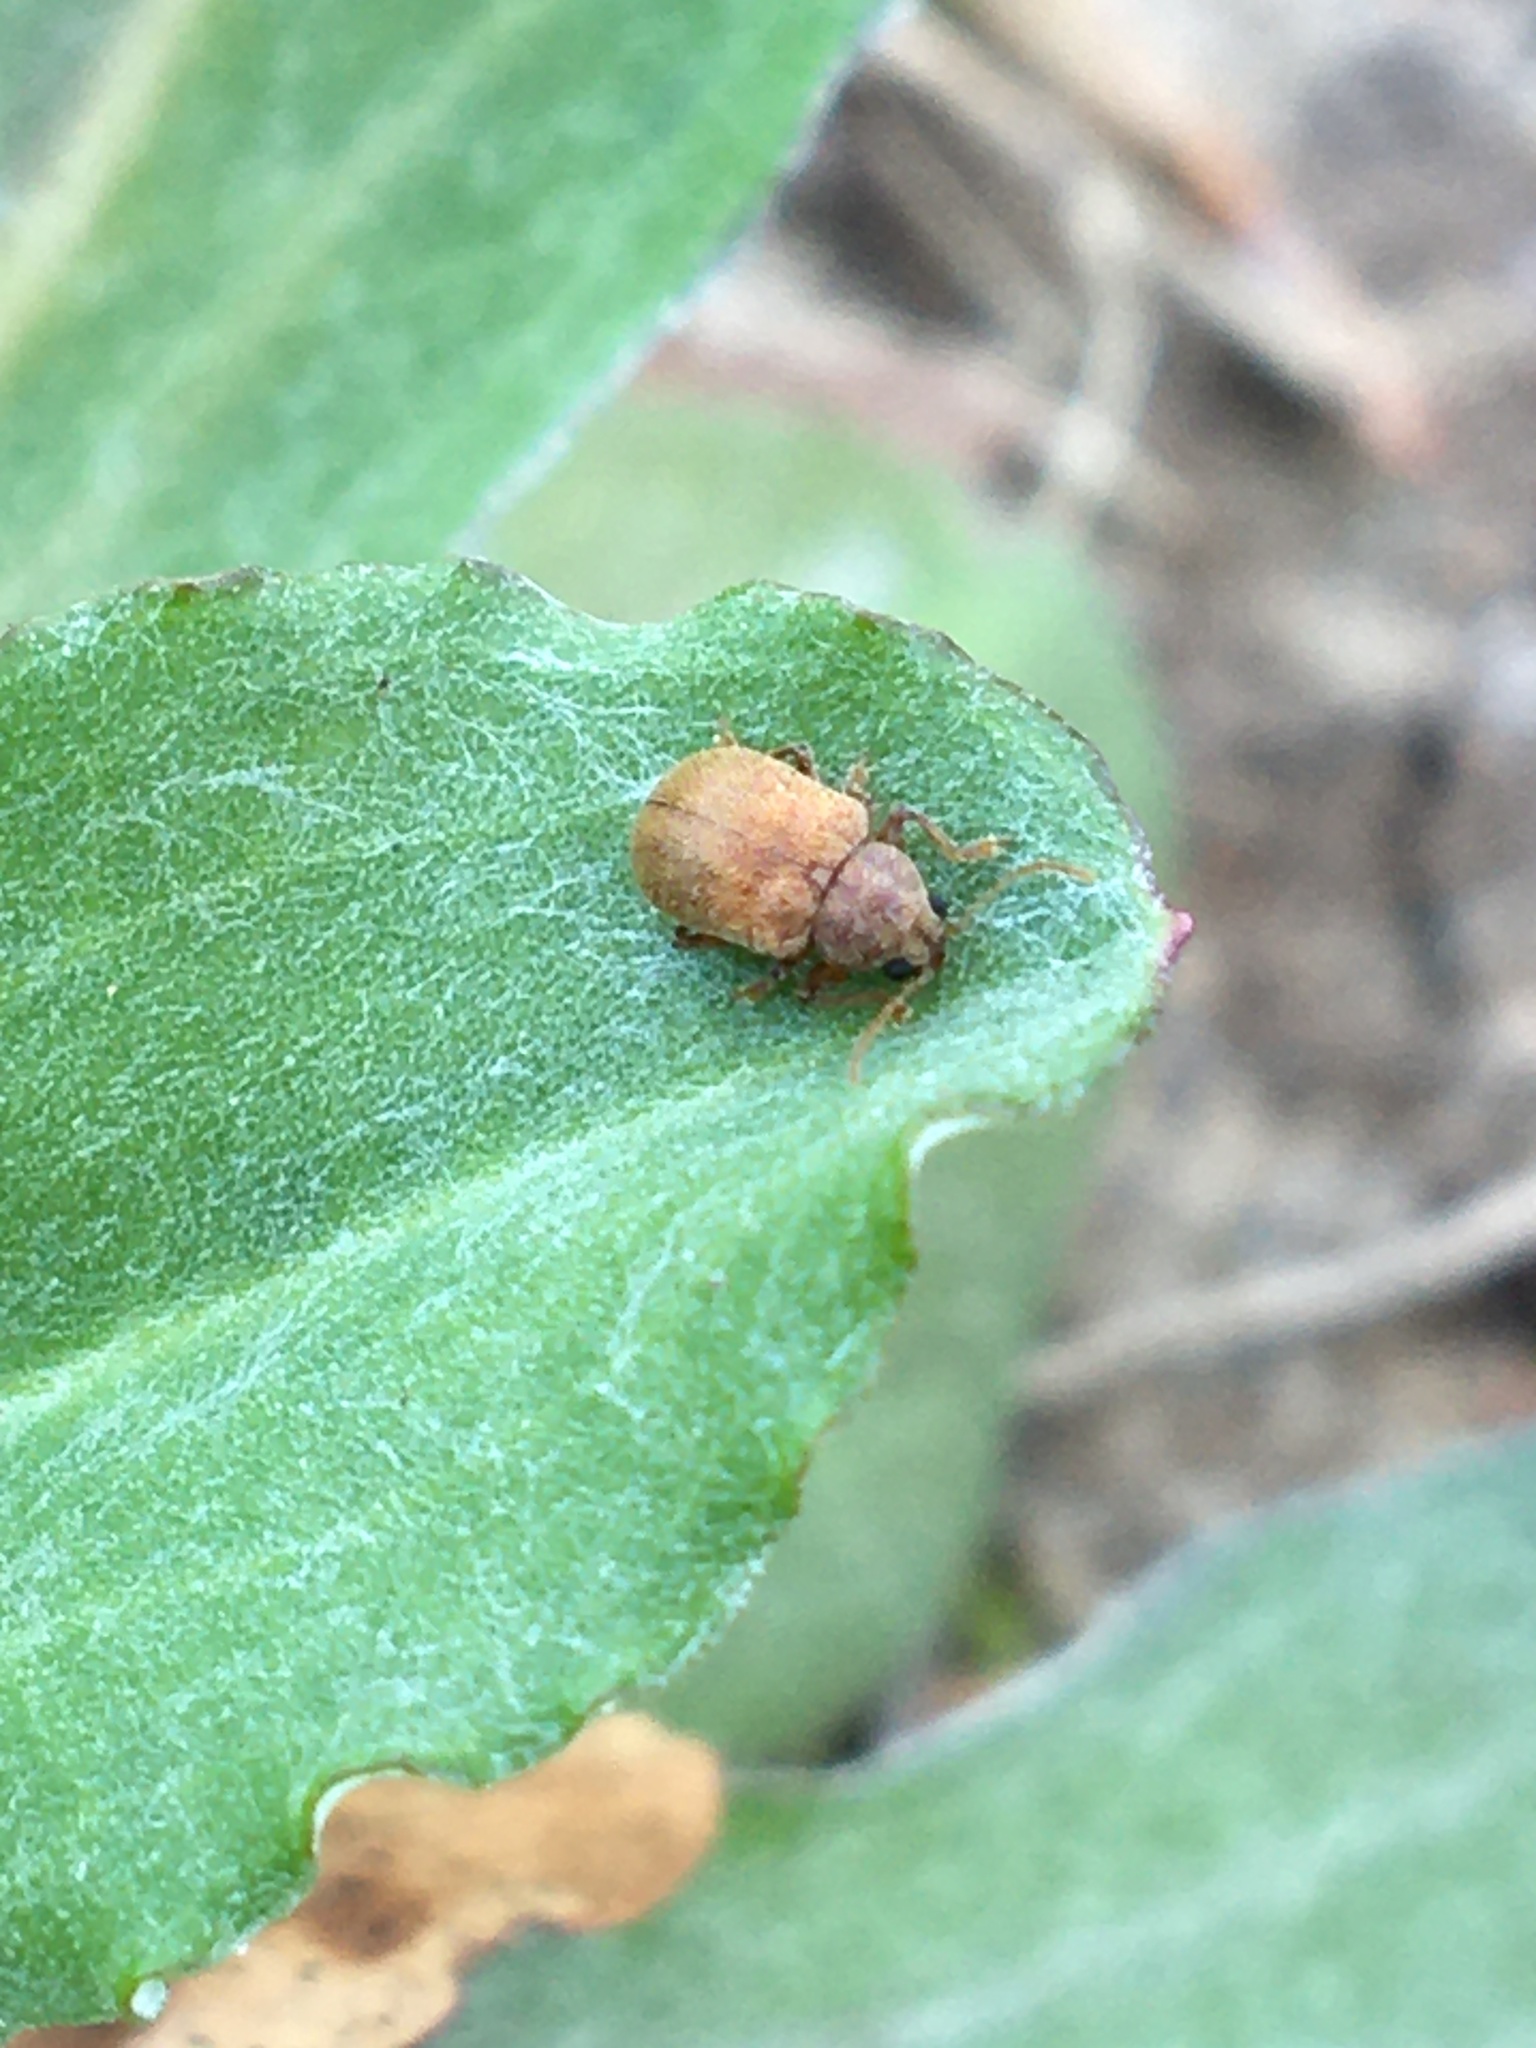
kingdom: Animalia
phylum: Arthropoda
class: Insecta
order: Coleoptera
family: Chrysomelidae
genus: Demotina
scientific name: Demotina modesta
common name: Leaf beetle
